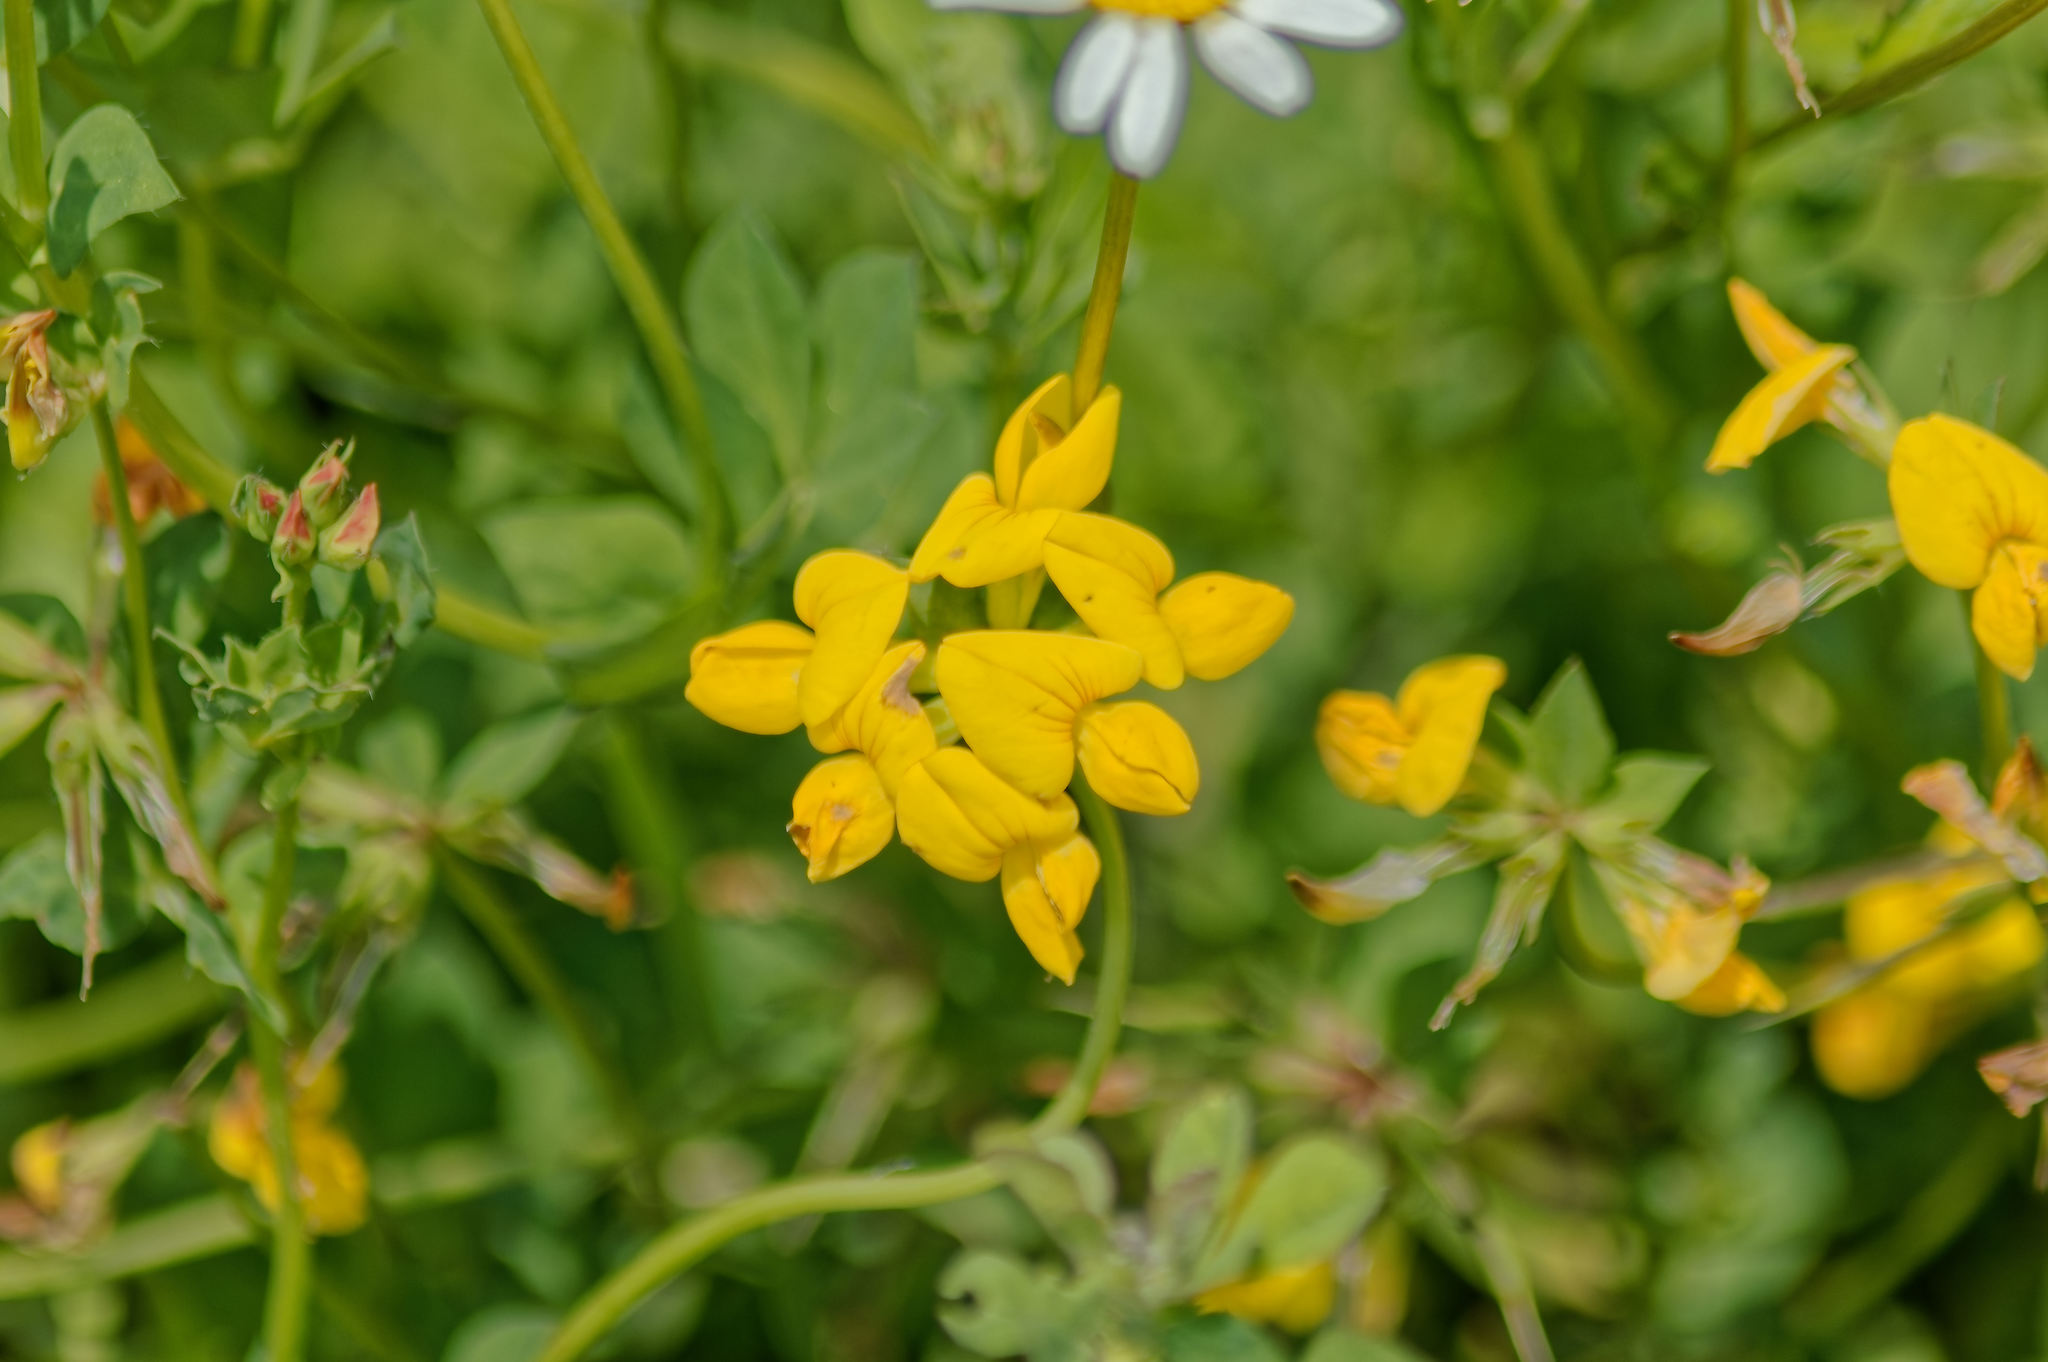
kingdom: Plantae
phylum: Tracheophyta
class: Magnoliopsida
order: Fabales
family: Fabaceae
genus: Lotus
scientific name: Lotus corniculatus
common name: Common bird's-foot-trefoil
